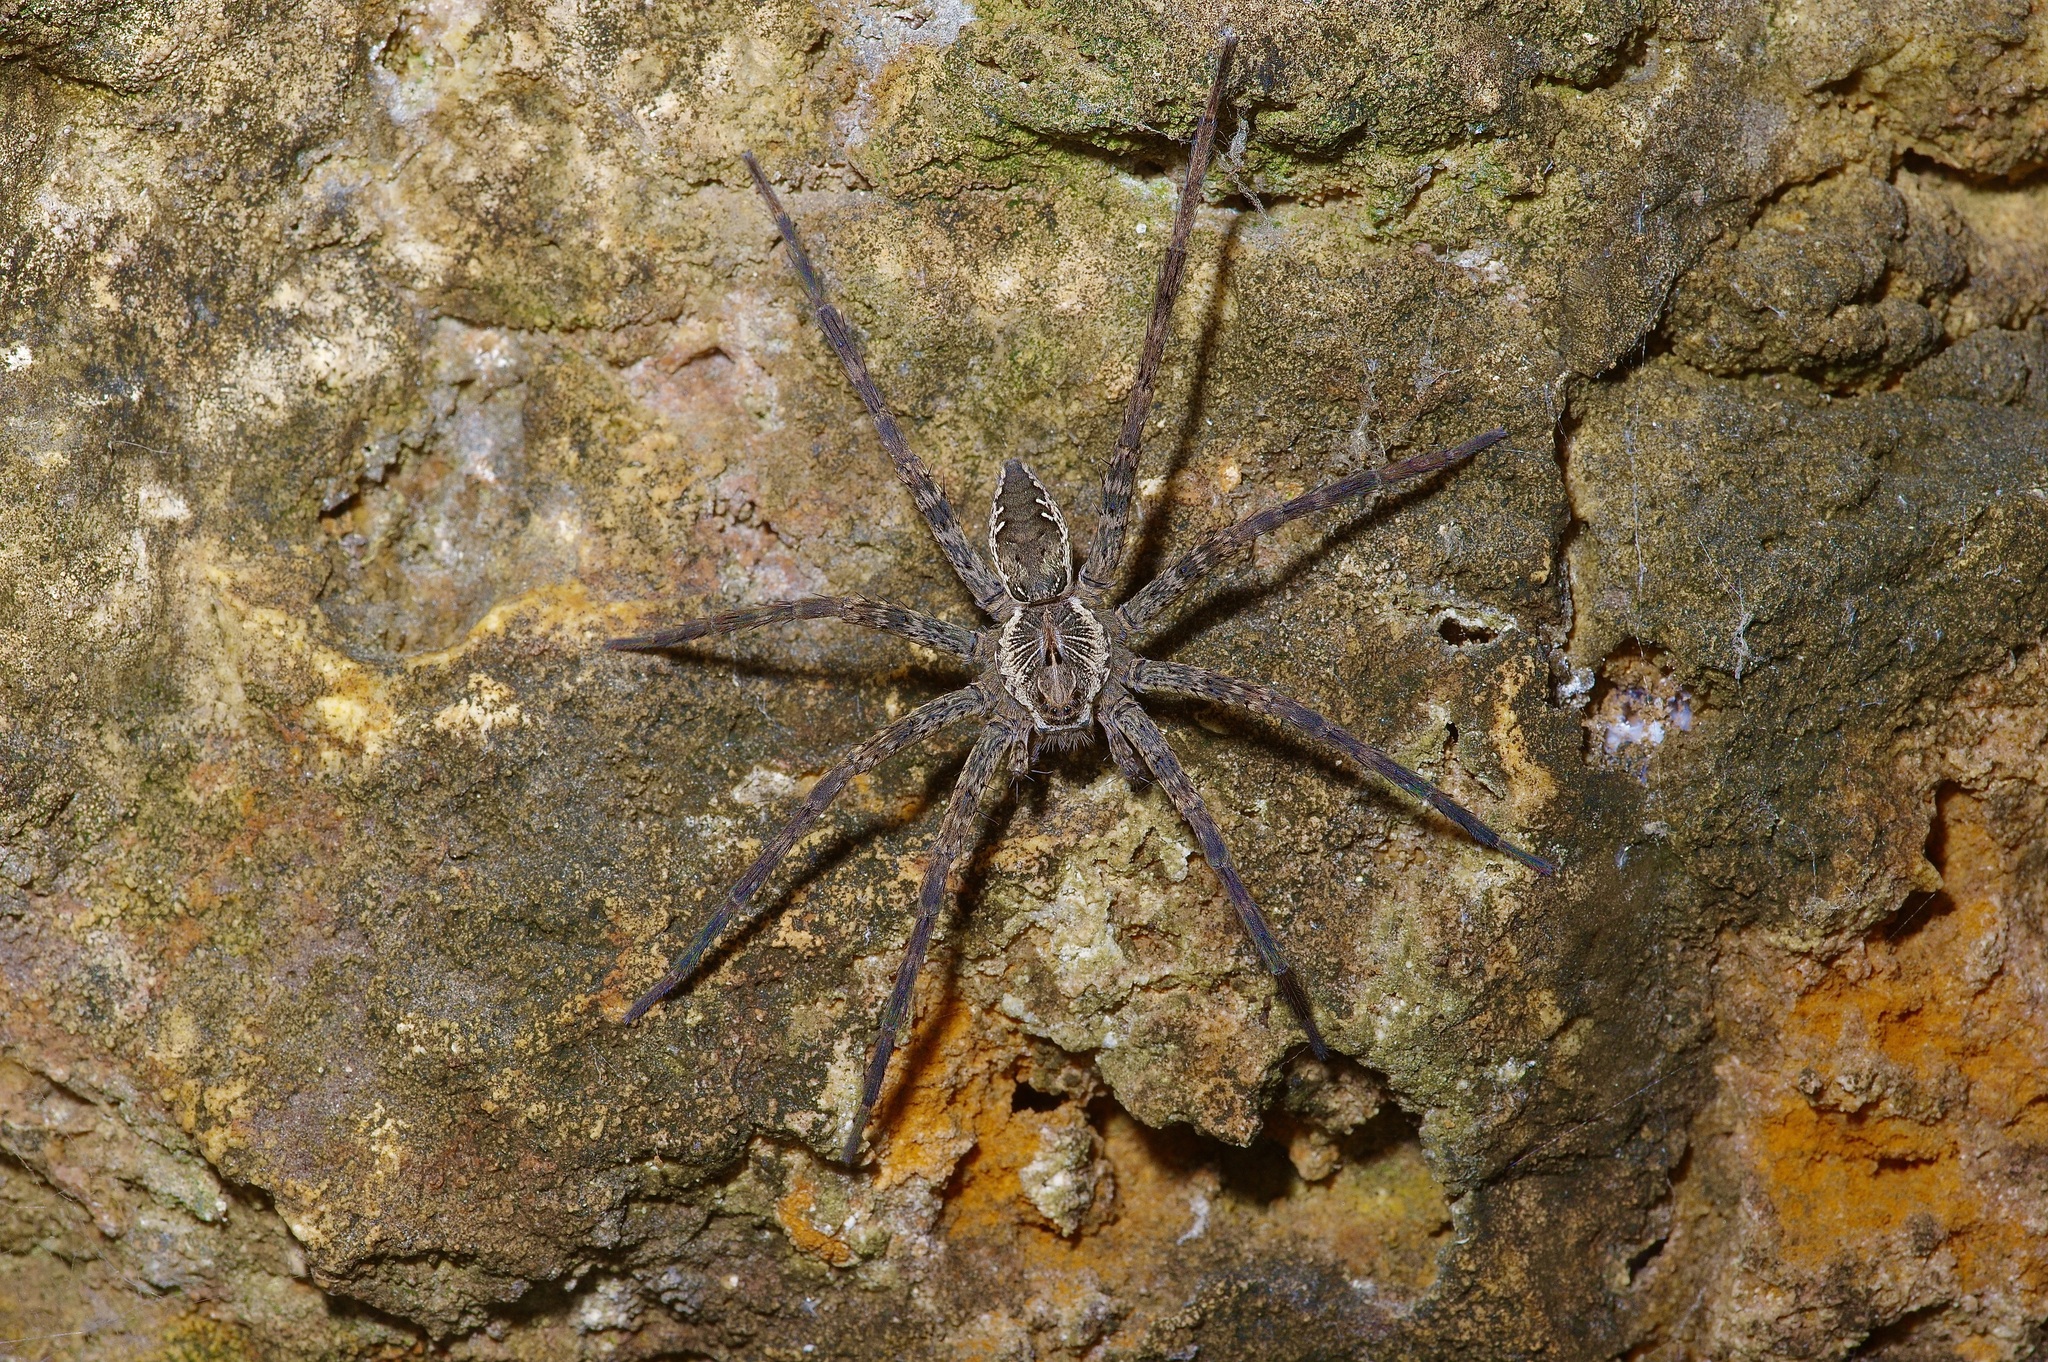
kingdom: Animalia
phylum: Arthropoda
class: Arachnida
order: Araneae
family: Pisauridae
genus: Dolomedes
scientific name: Dolomedes vittatus
